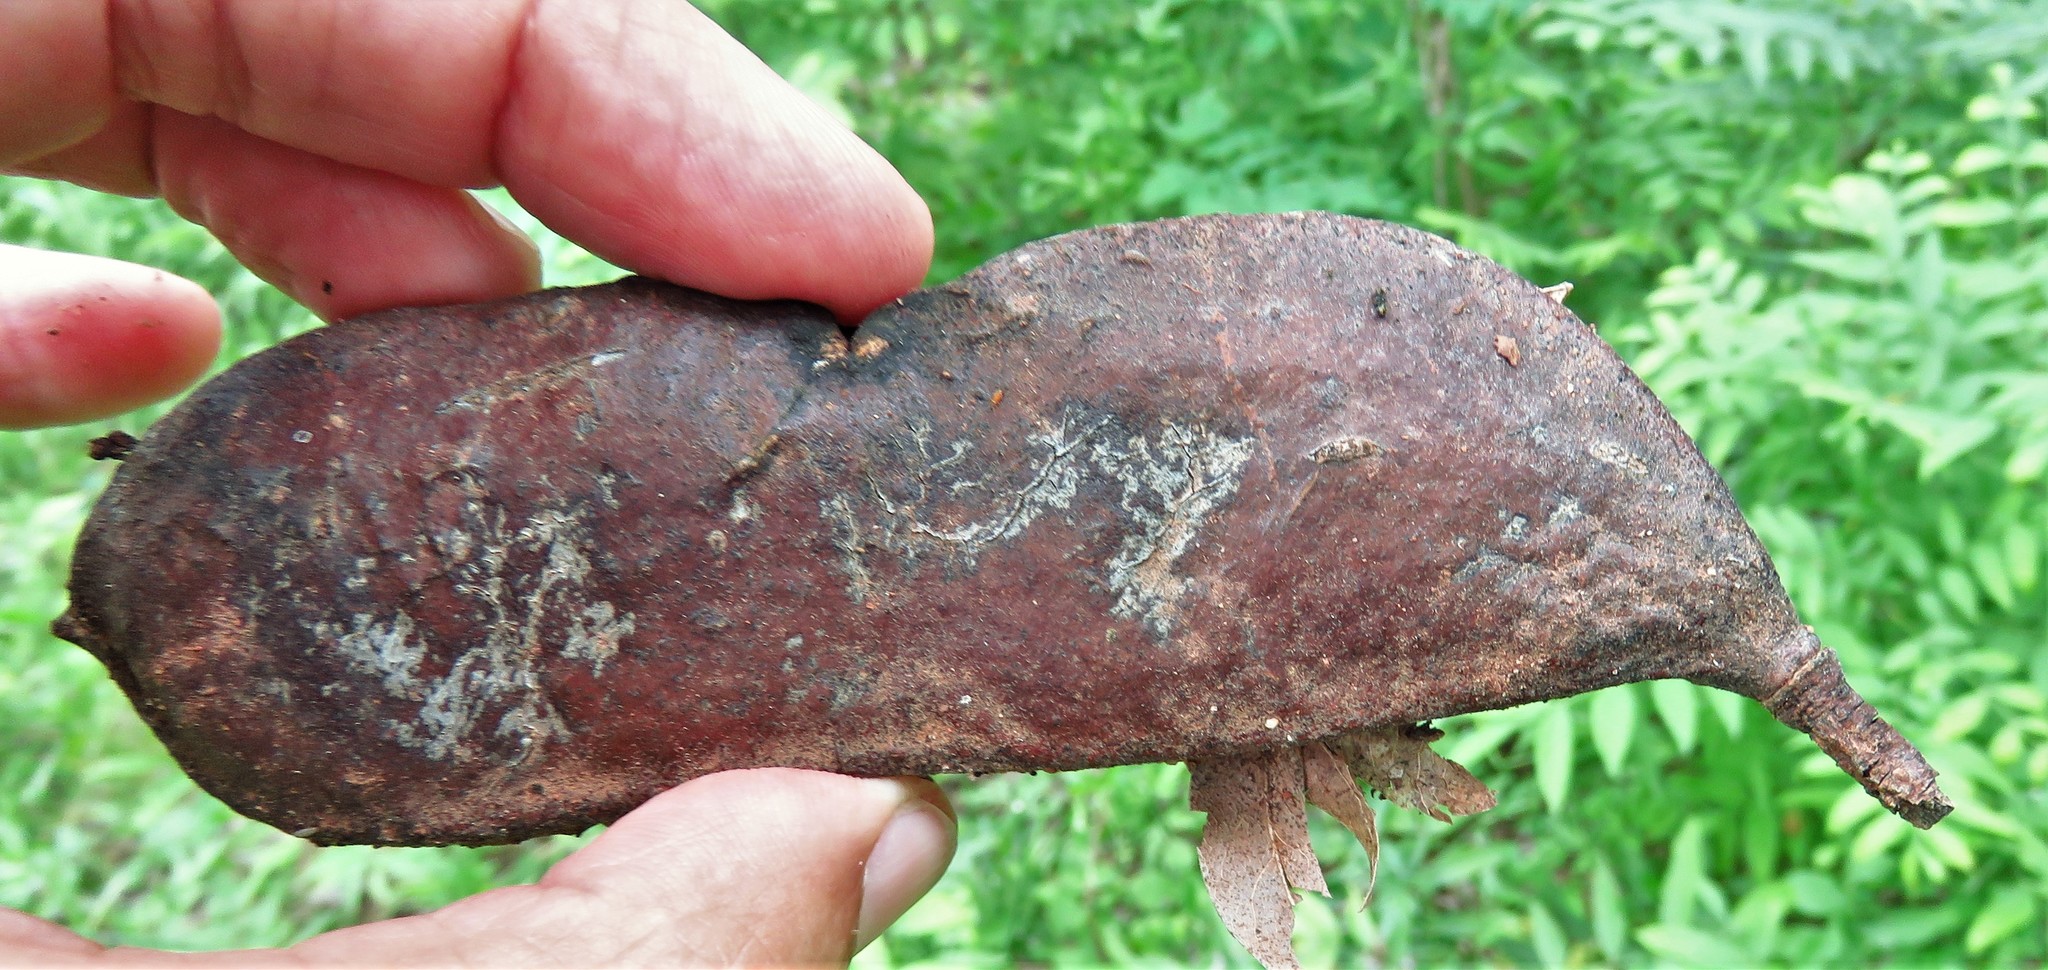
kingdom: Plantae
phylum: Tracheophyta
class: Magnoliopsida
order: Fabales
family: Fabaceae
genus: Gymnocladus
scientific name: Gymnocladus dioicus
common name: Kentucky coffee-tree
